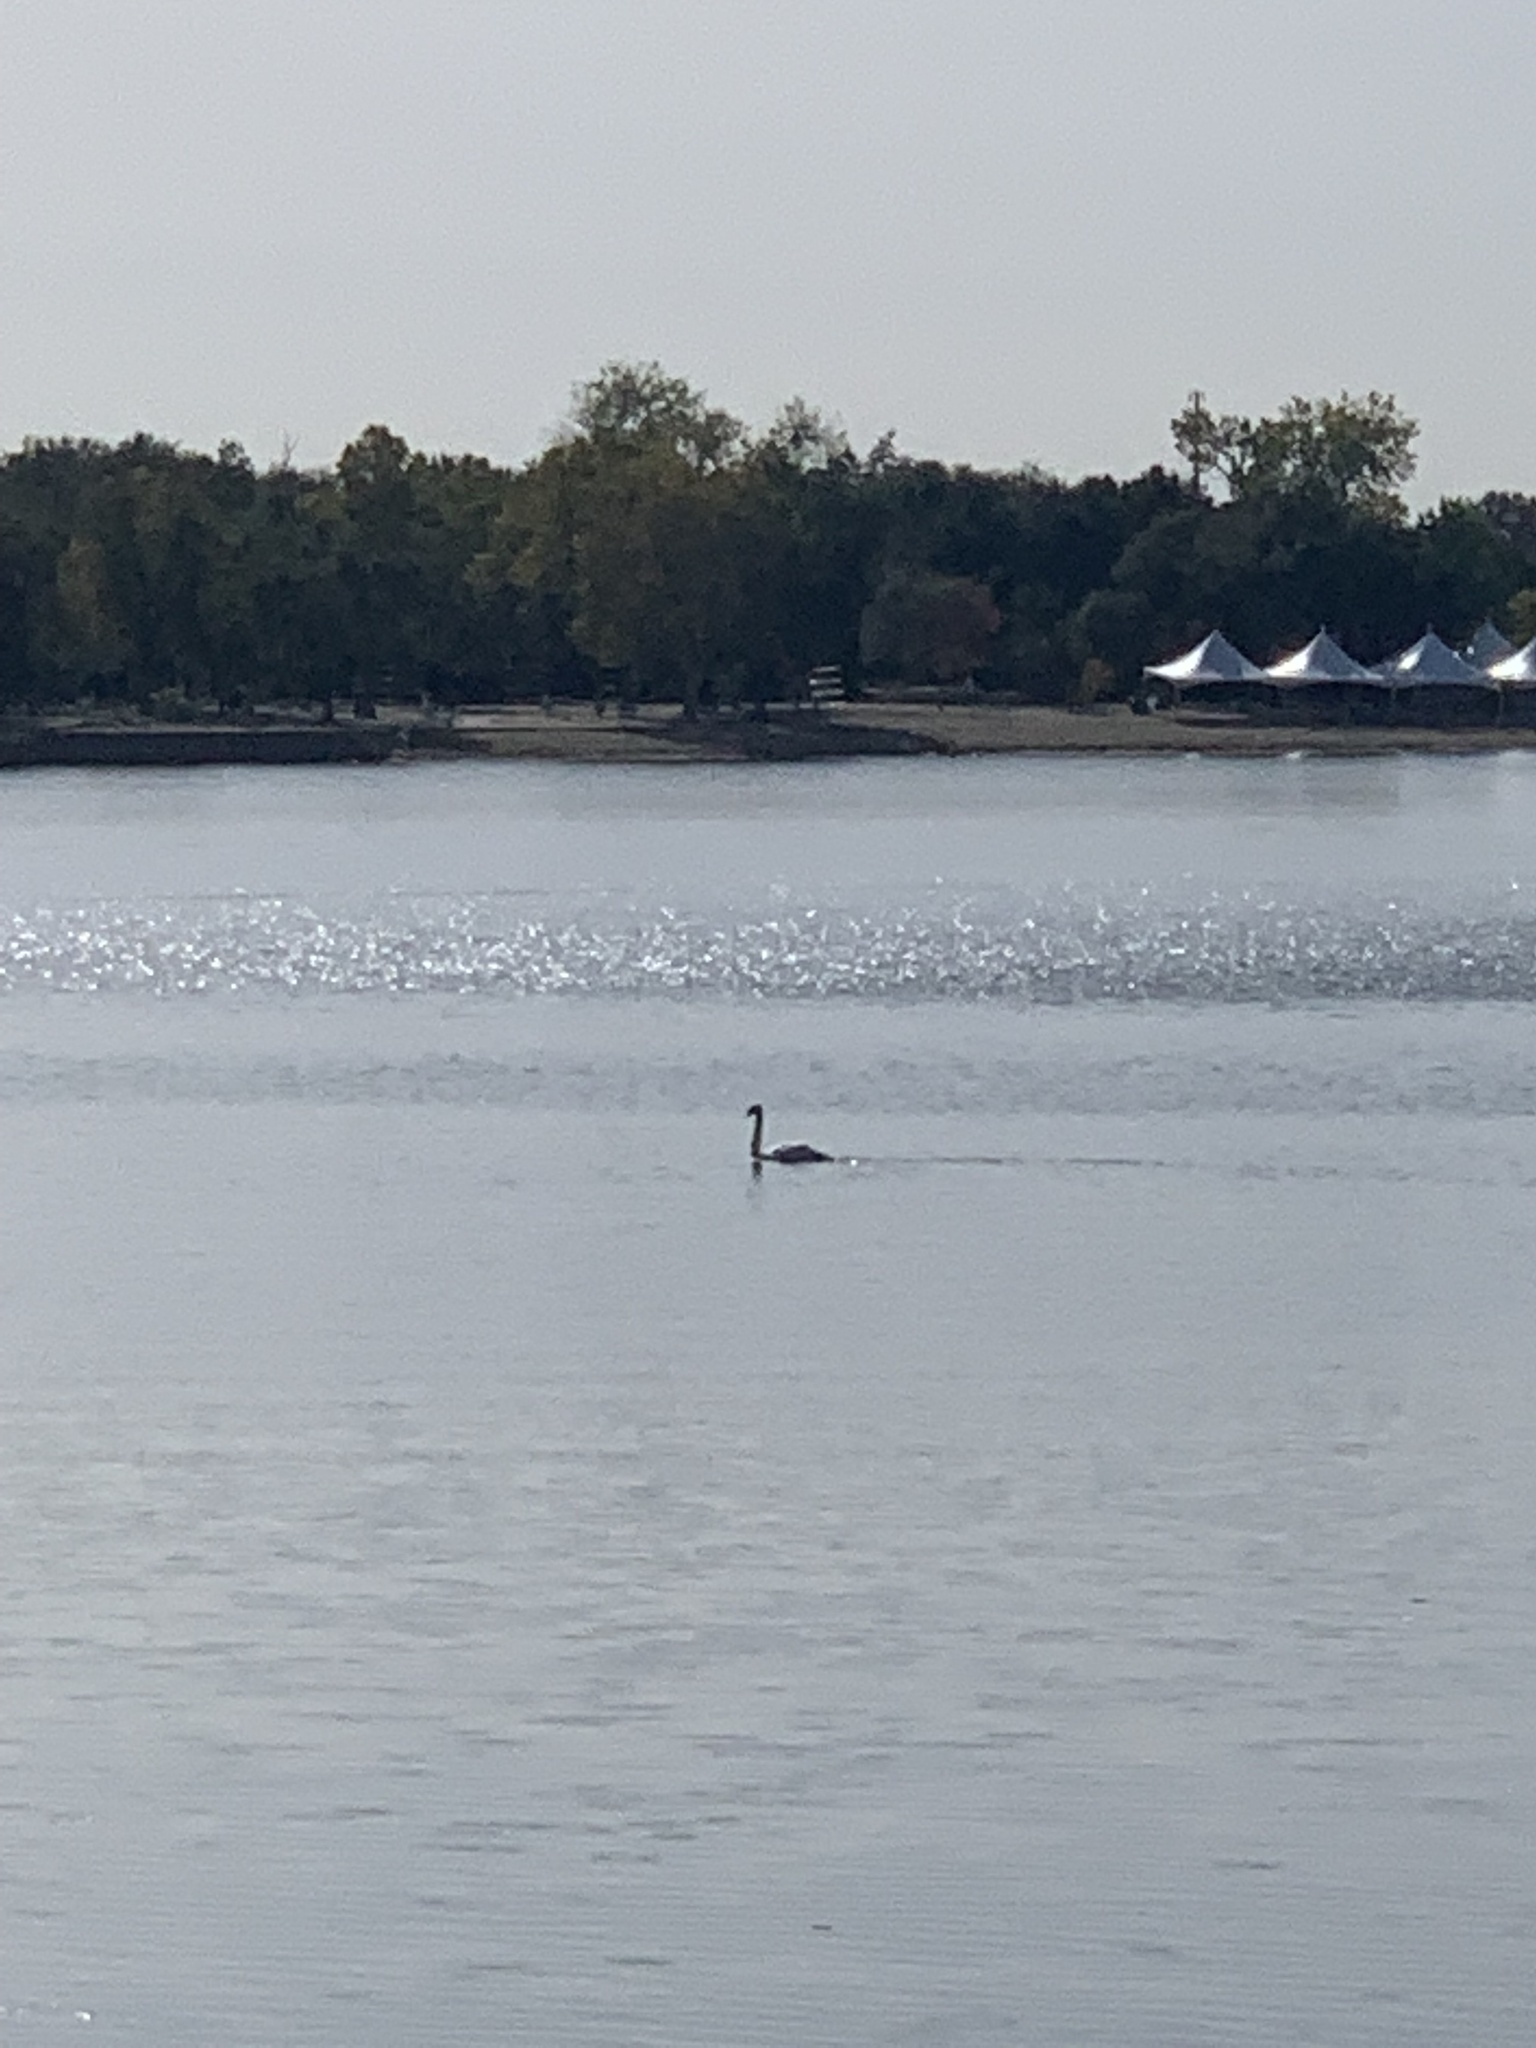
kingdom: Animalia
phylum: Chordata
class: Aves
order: Anseriformes
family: Anatidae
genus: Cygnus
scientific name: Cygnus olor
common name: Mute swan
